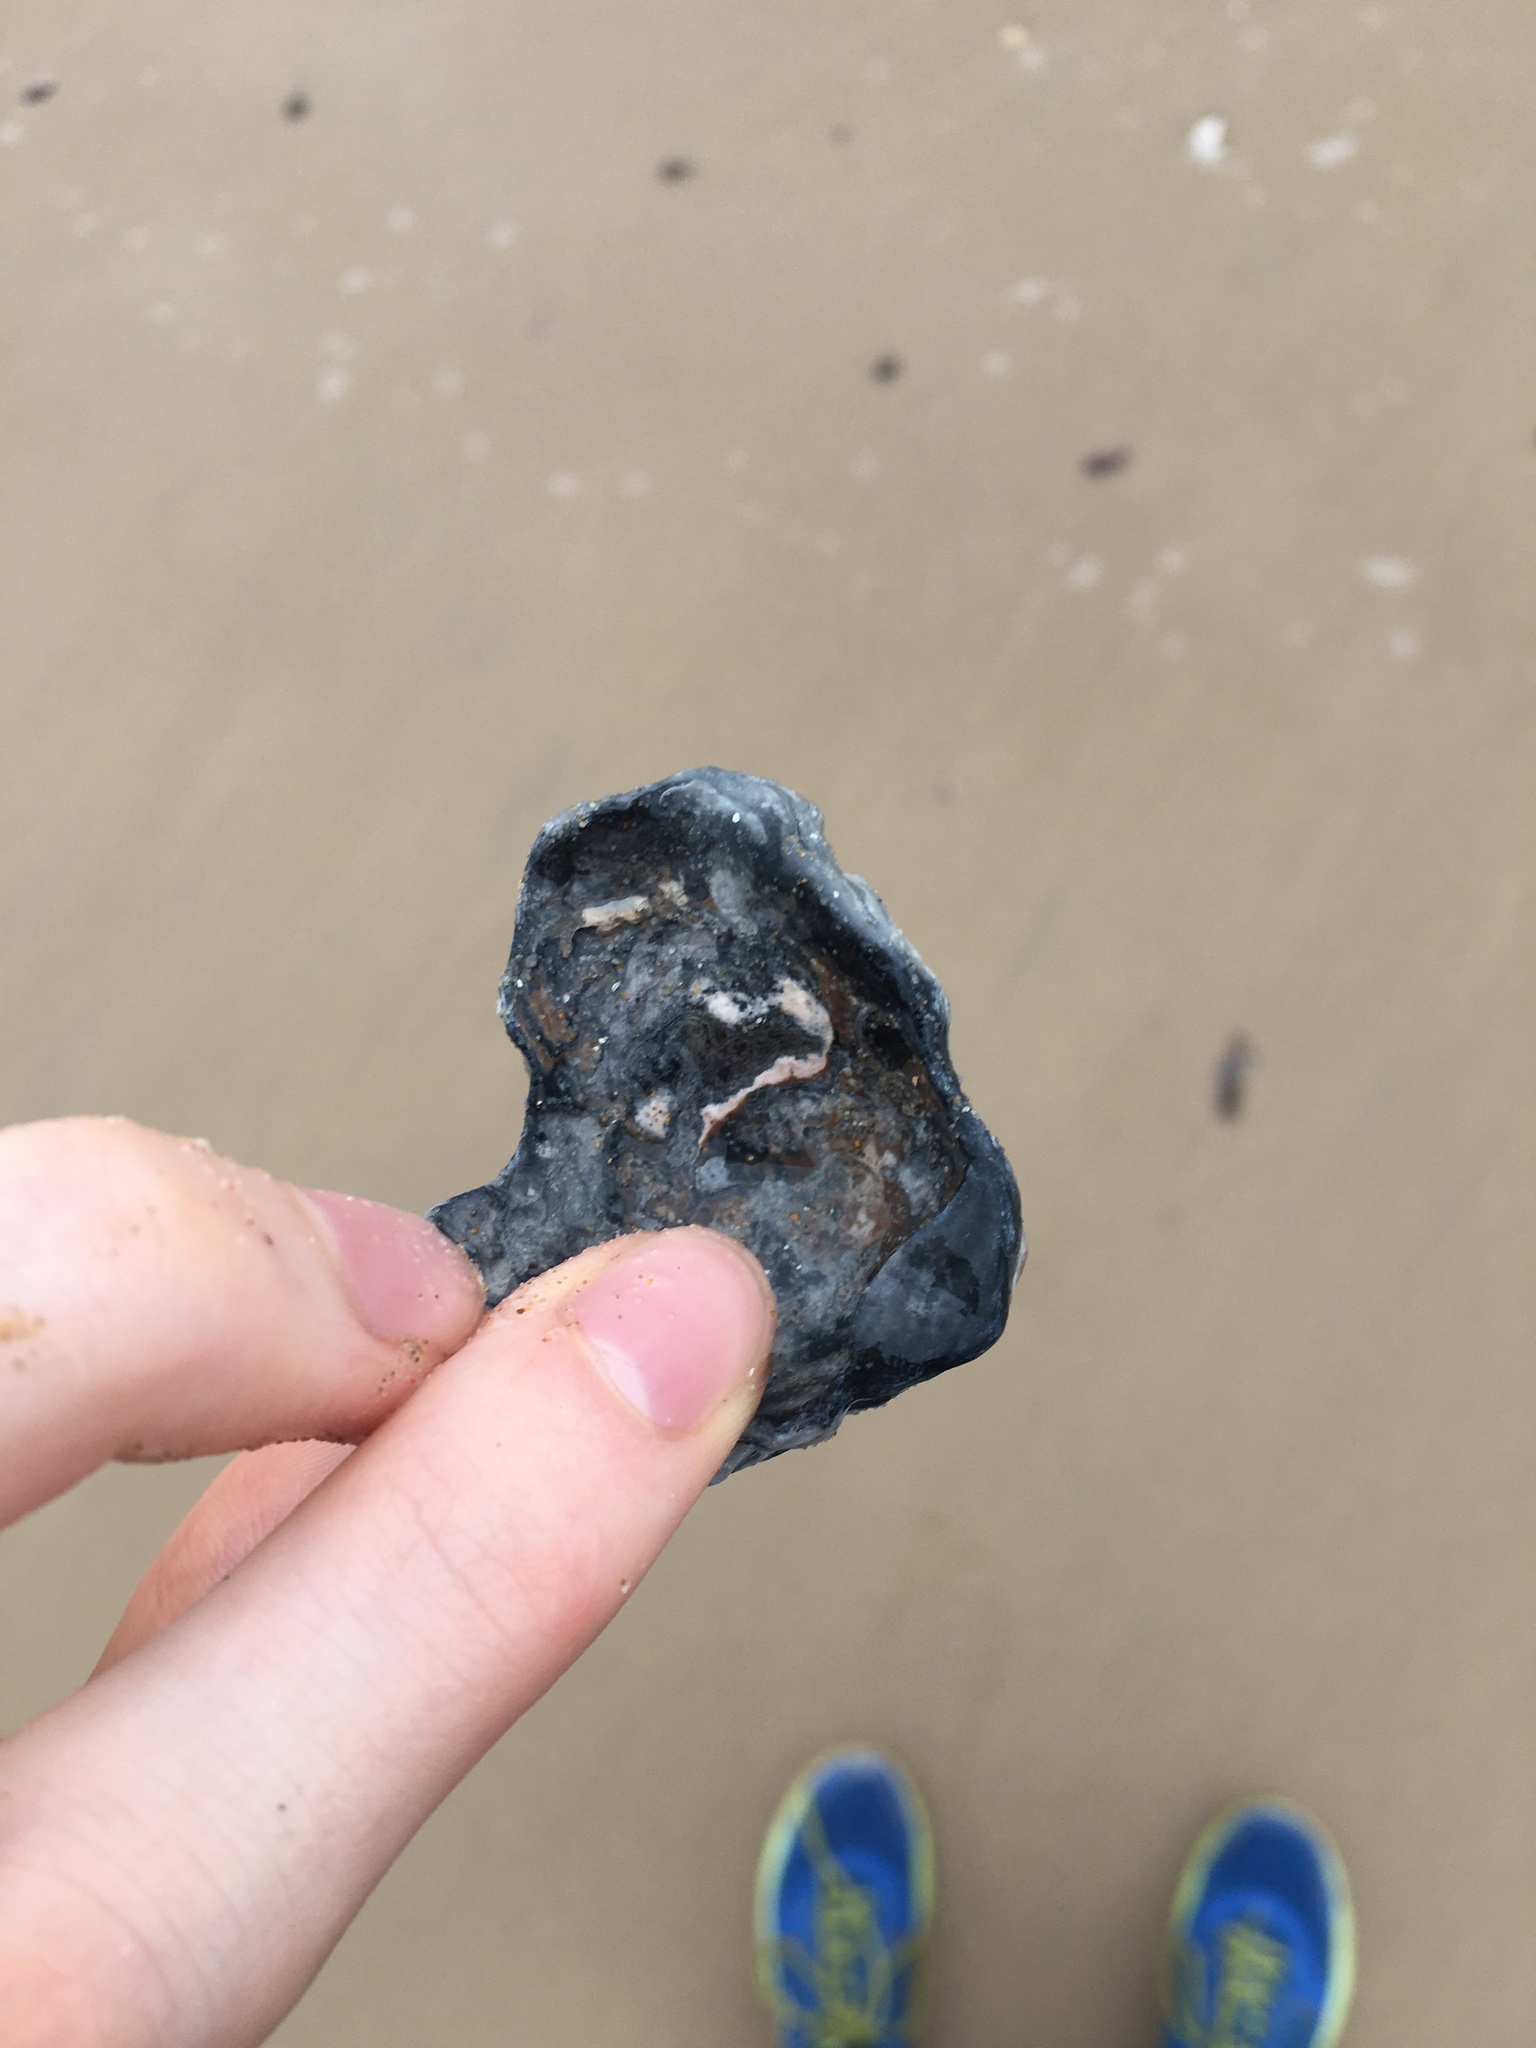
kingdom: Animalia
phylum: Mollusca
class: Bivalvia
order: Ostreida
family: Ostreidae
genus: Ostrea
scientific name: Ostrea angasi
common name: Angasi oyster
